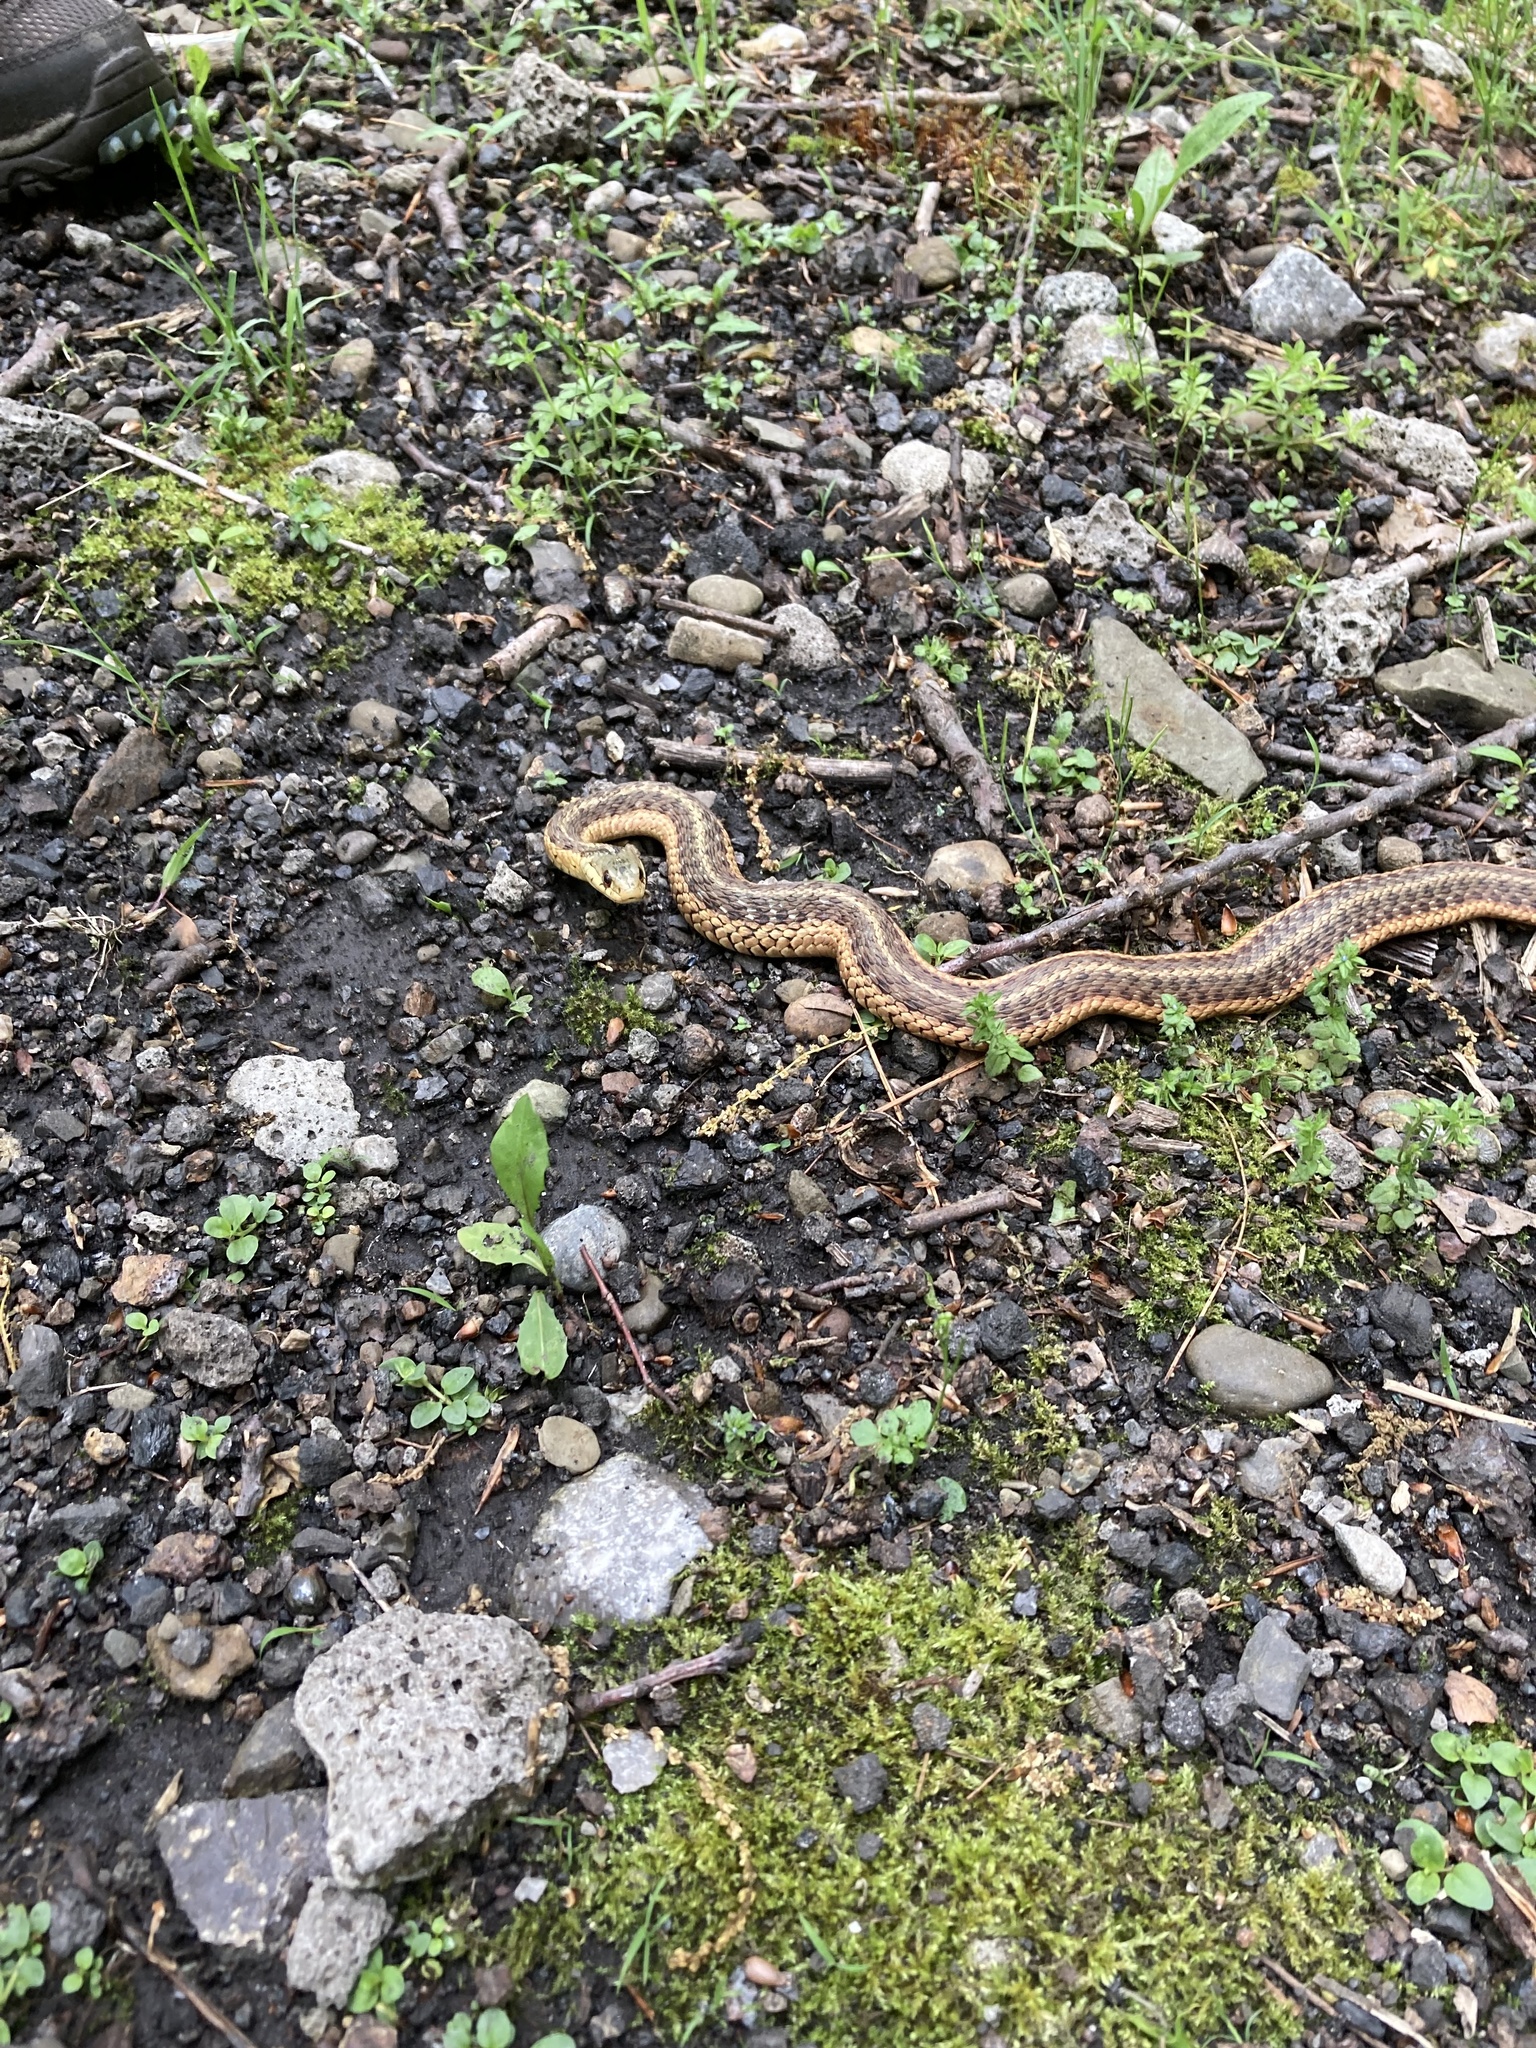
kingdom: Animalia
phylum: Chordata
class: Squamata
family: Colubridae
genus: Thamnophis
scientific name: Thamnophis sirtalis
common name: Common garter snake
